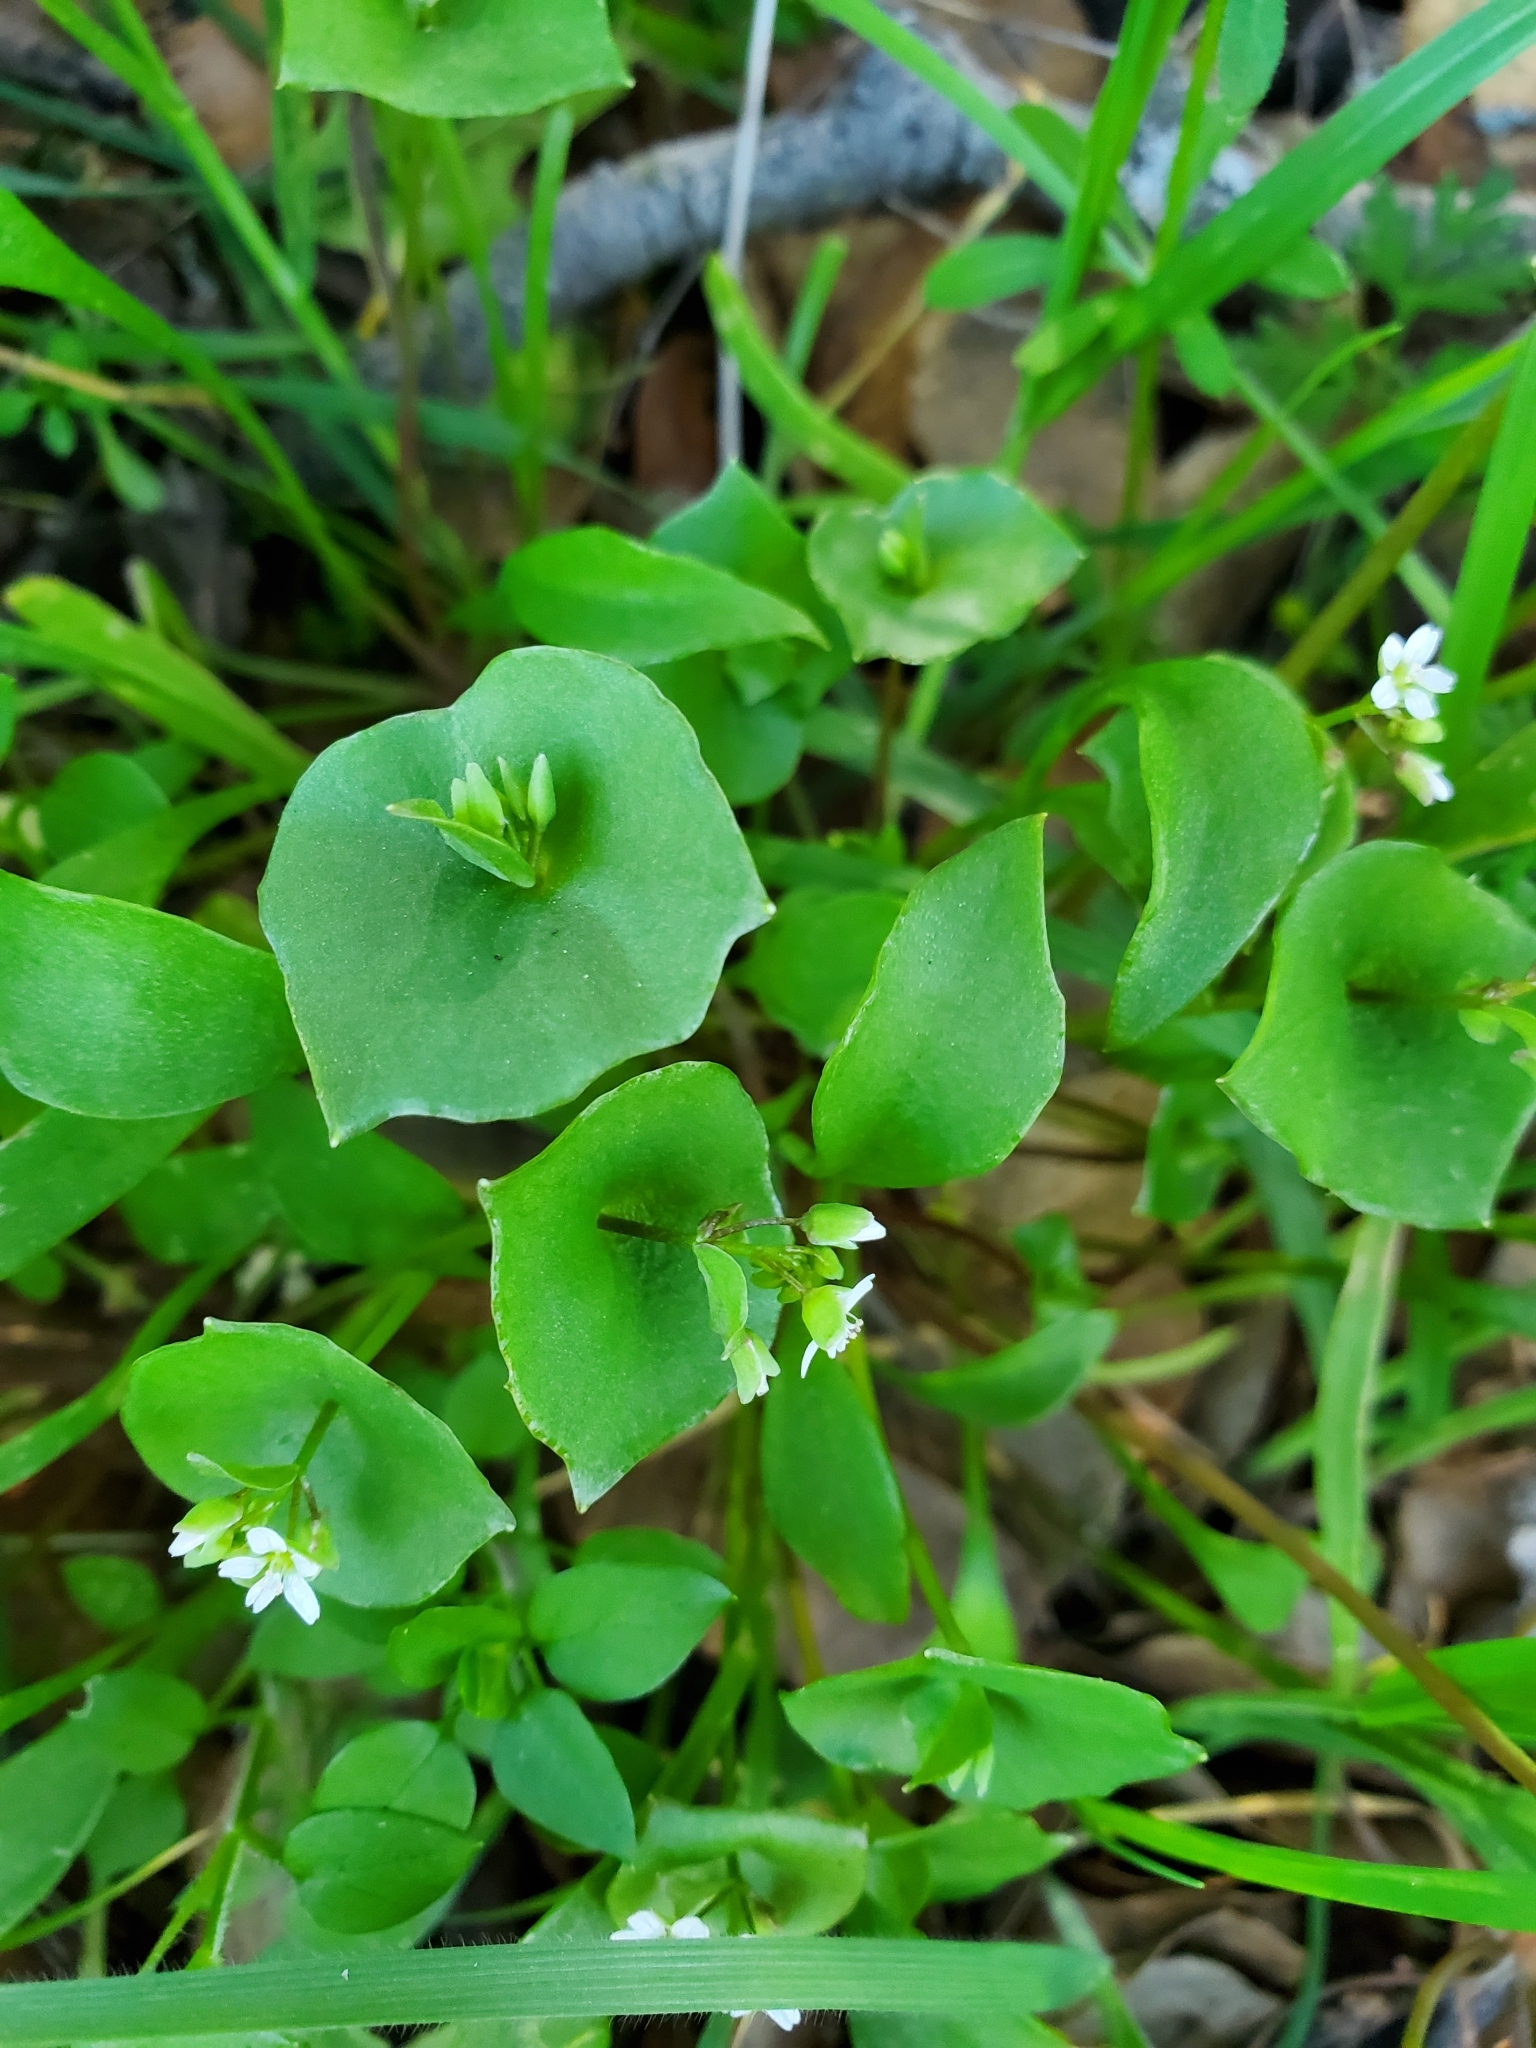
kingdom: Plantae
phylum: Tracheophyta
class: Magnoliopsida
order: Caryophyllales
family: Montiaceae
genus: Claytonia
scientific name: Claytonia perfoliata
